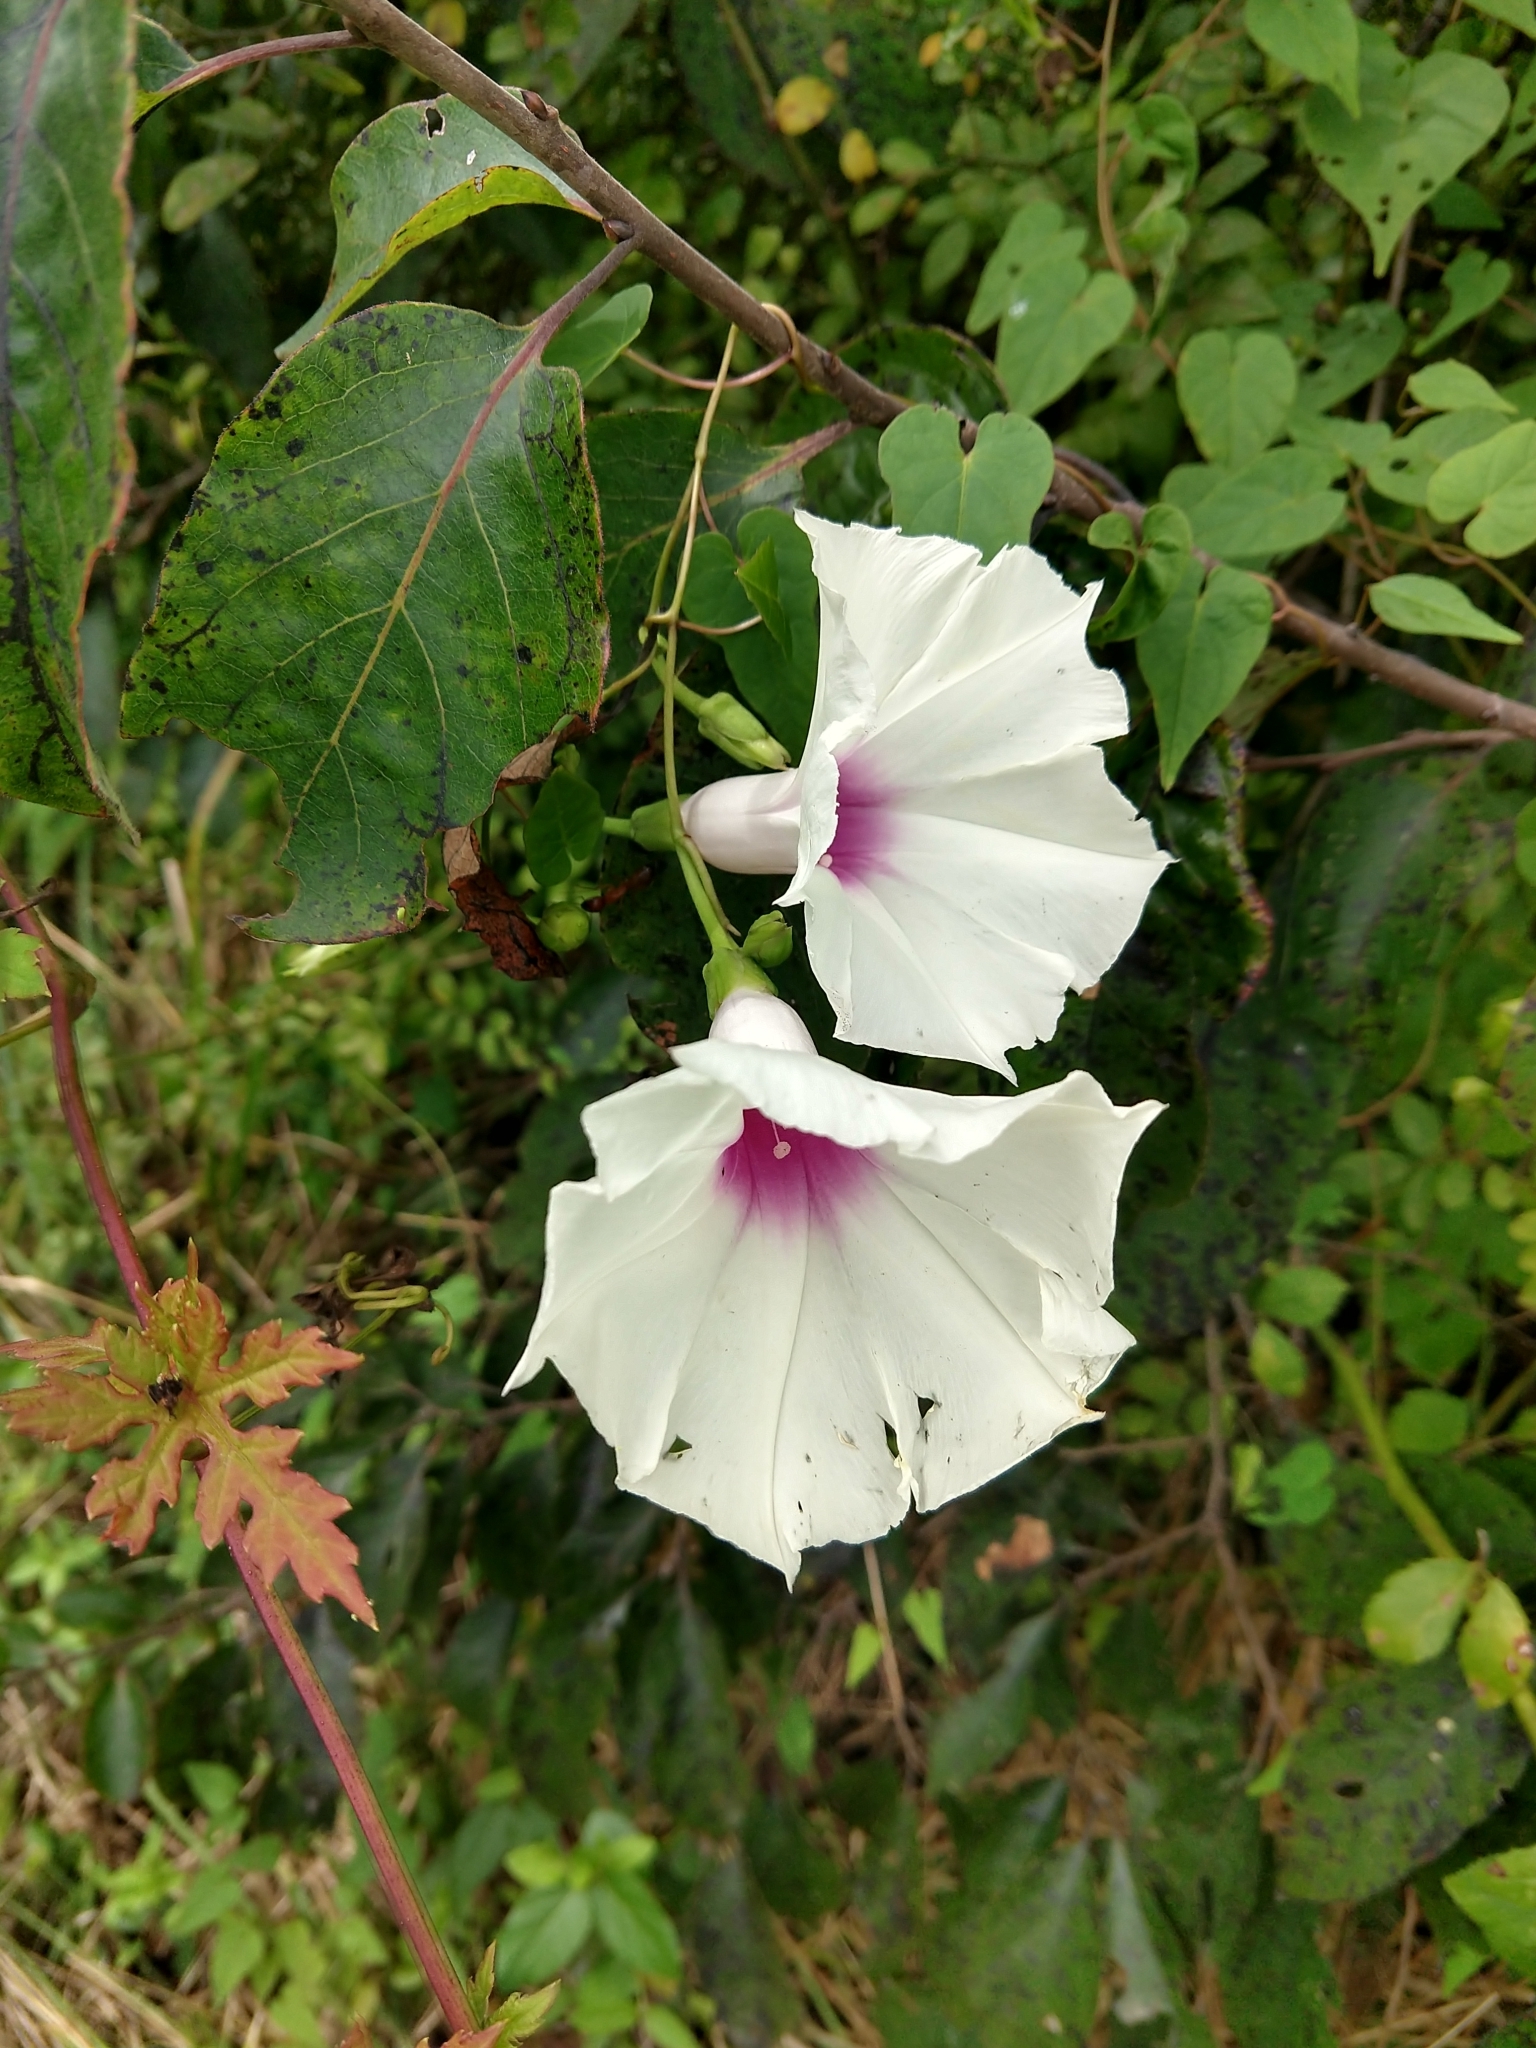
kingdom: Plantae
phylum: Tracheophyta
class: Magnoliopsida
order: Solanales
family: Convolvulaceae
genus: Ipomoea
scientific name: Ipomoea pandurata
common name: Man-of-the-earth
